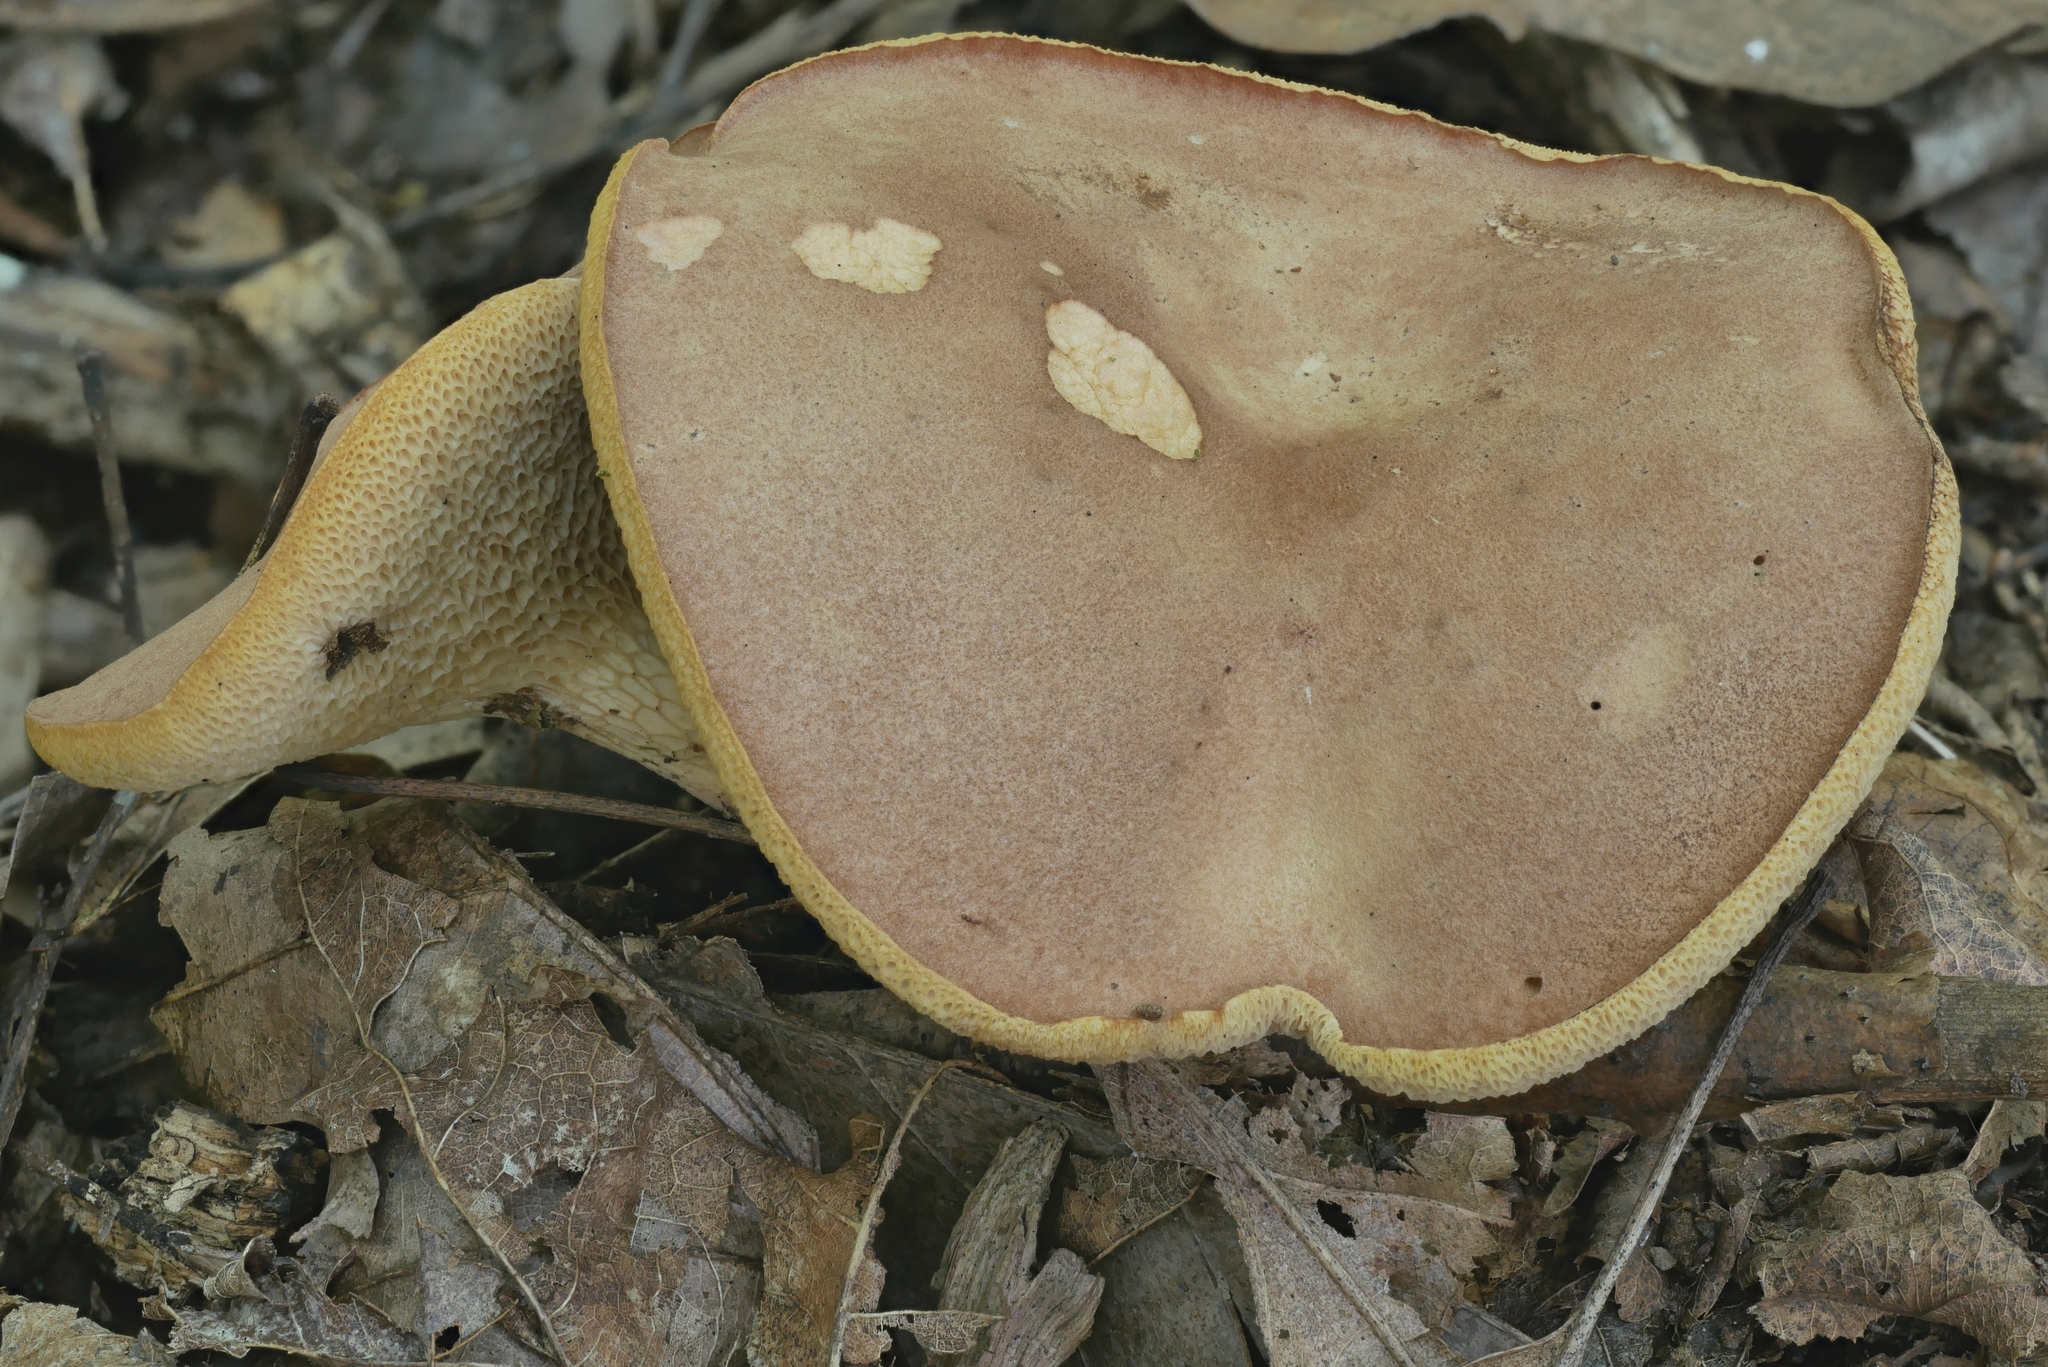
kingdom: Fungi
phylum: Basidiomycota
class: Agaricomycetes
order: Boletales
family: Boletaceae
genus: Bothia
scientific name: Bothia castanella
